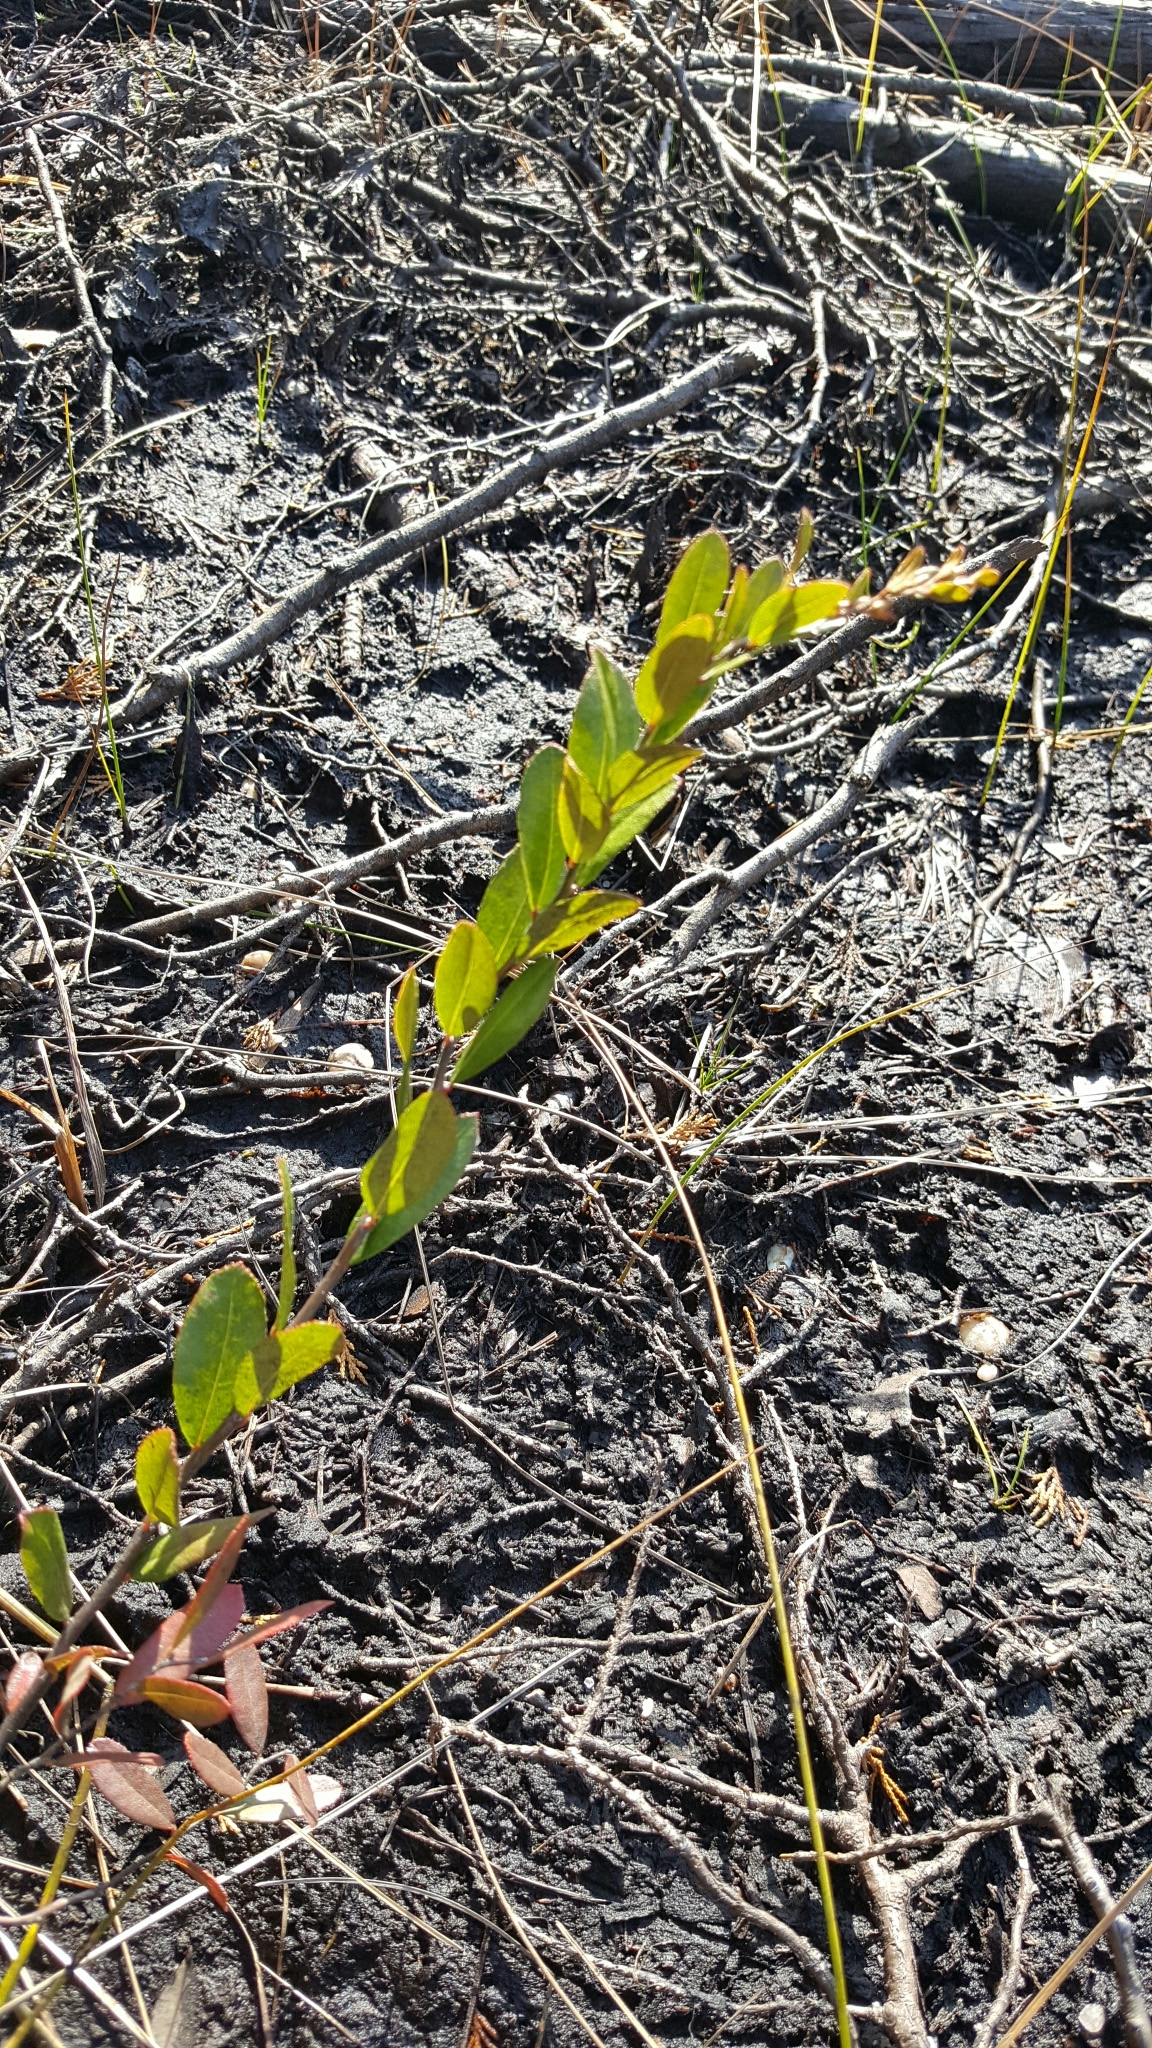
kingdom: Plantae
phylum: Tracheophyta
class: Magnoliopsida
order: Ericales
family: Ericaceae
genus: Chamaedaphne
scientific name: Chamaedaphne calyculata
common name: Leatherleaf
